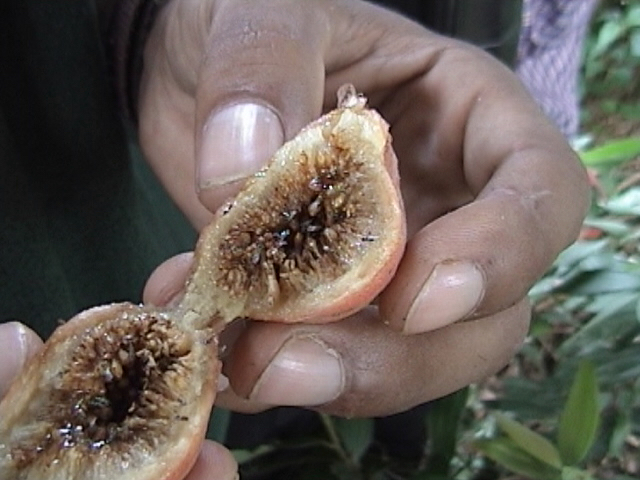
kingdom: Plantae
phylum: Tracheophyta
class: Magnoliopsida
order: Rosales
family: Moraceae
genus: Ficus
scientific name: Ficus racemosa
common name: Cluster fig
